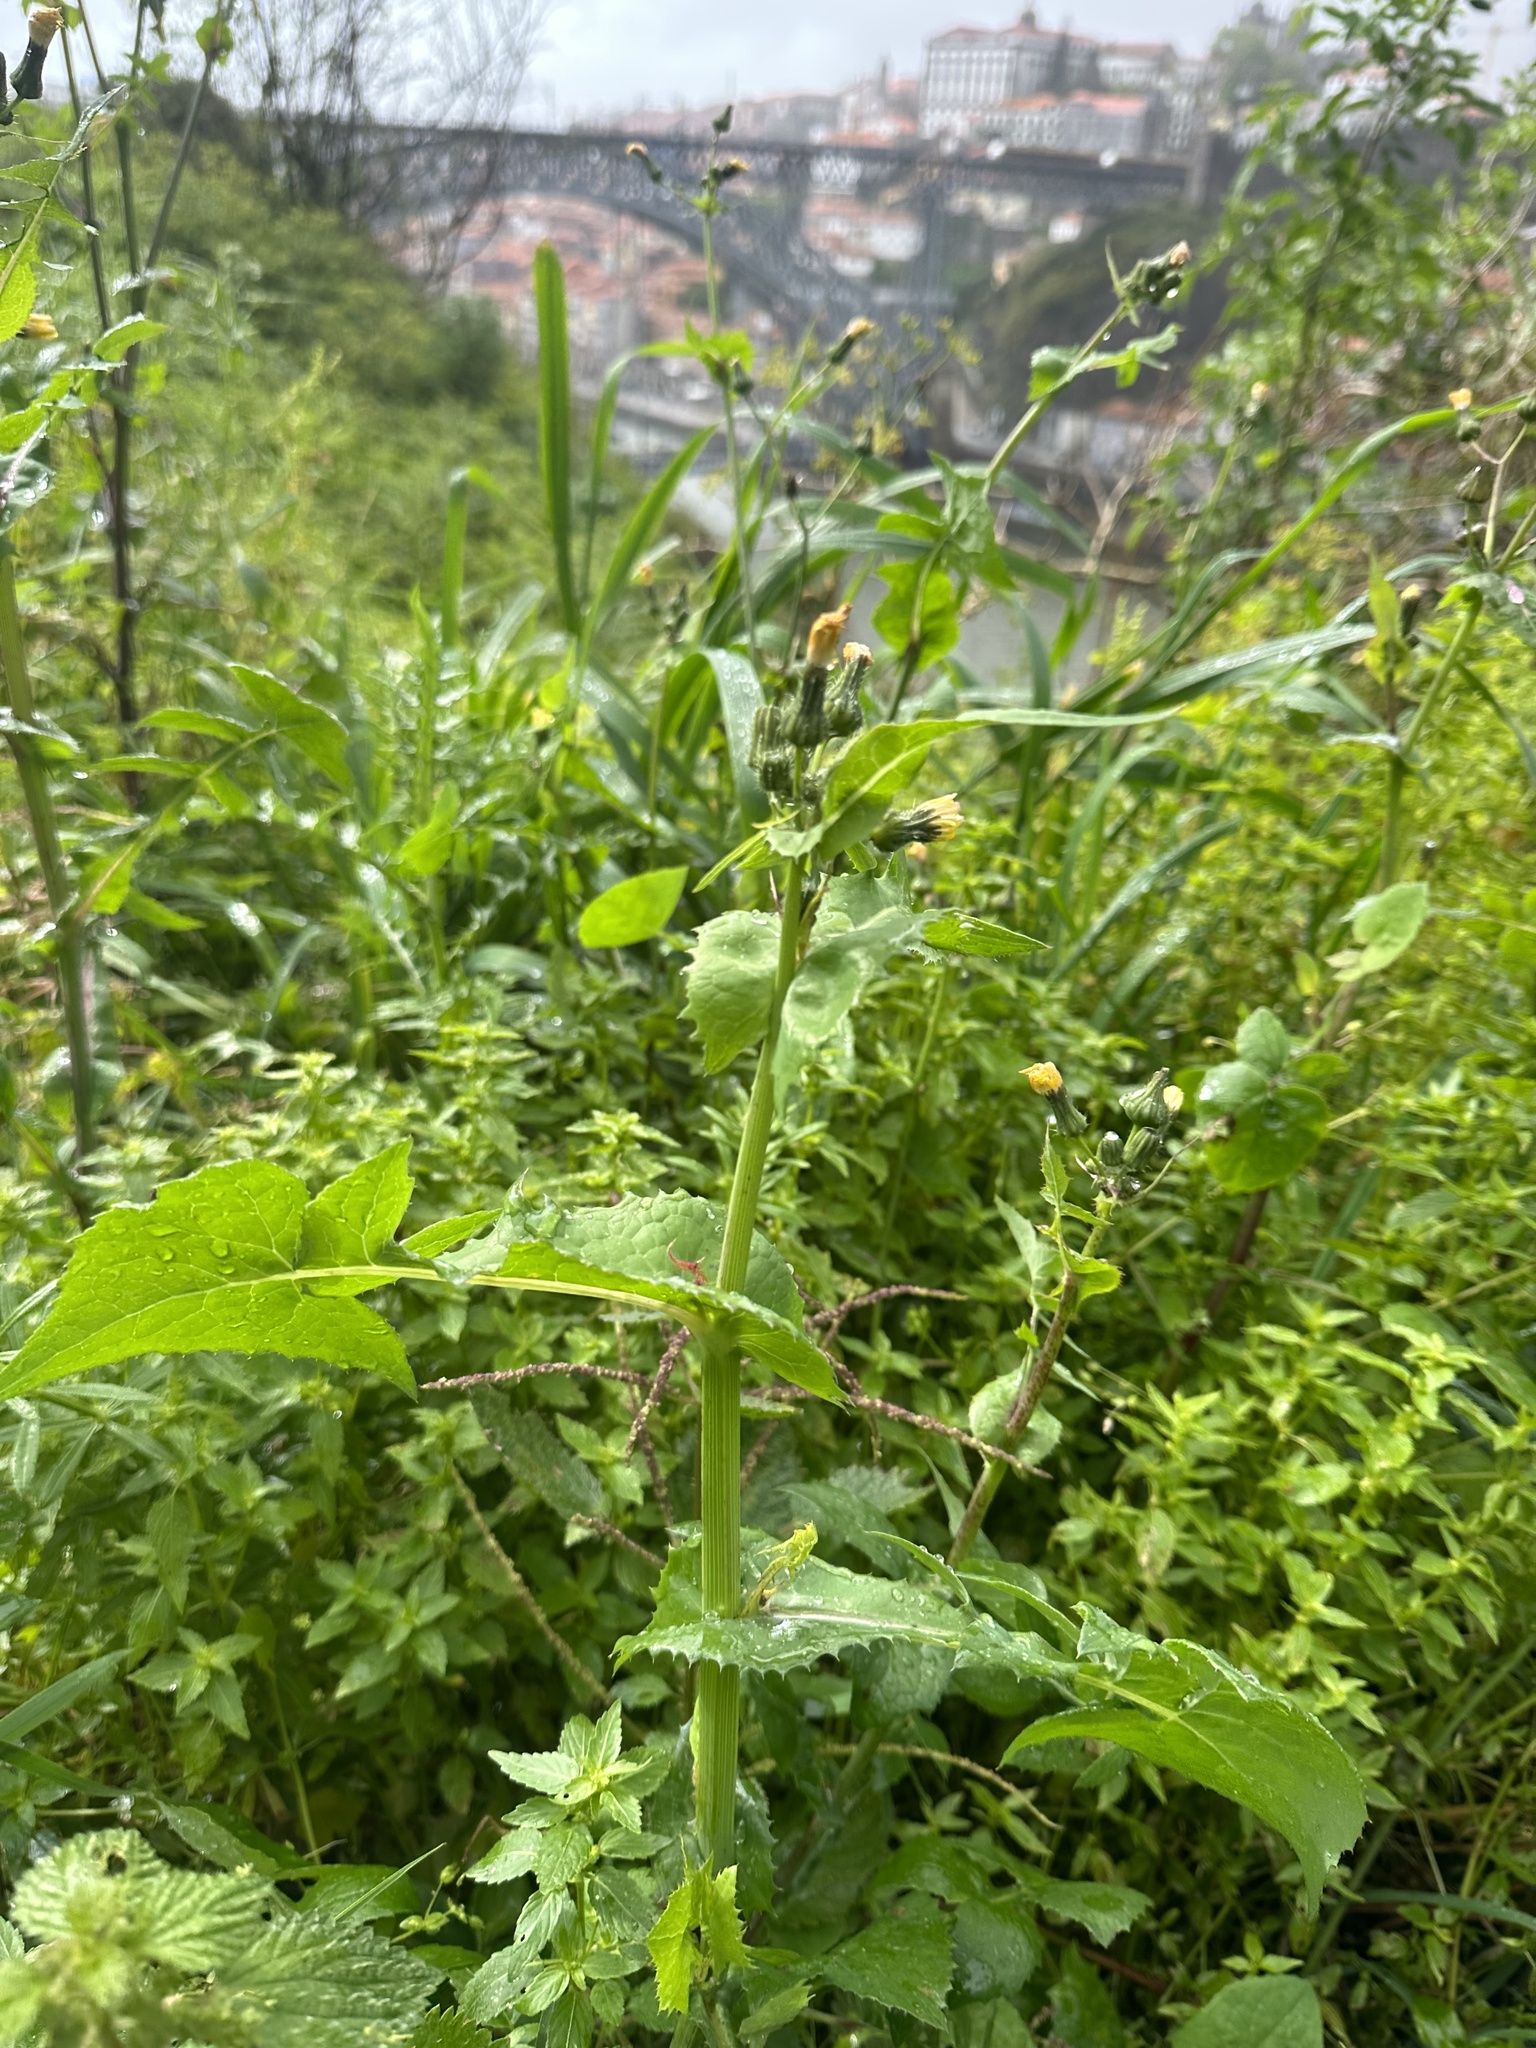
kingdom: Plantae
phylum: Tracheophyta
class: Magnoliopsida
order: Asterales
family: Asteraceae
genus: Sonchus
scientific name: Sonchus oleraceus
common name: Common sowthistle
